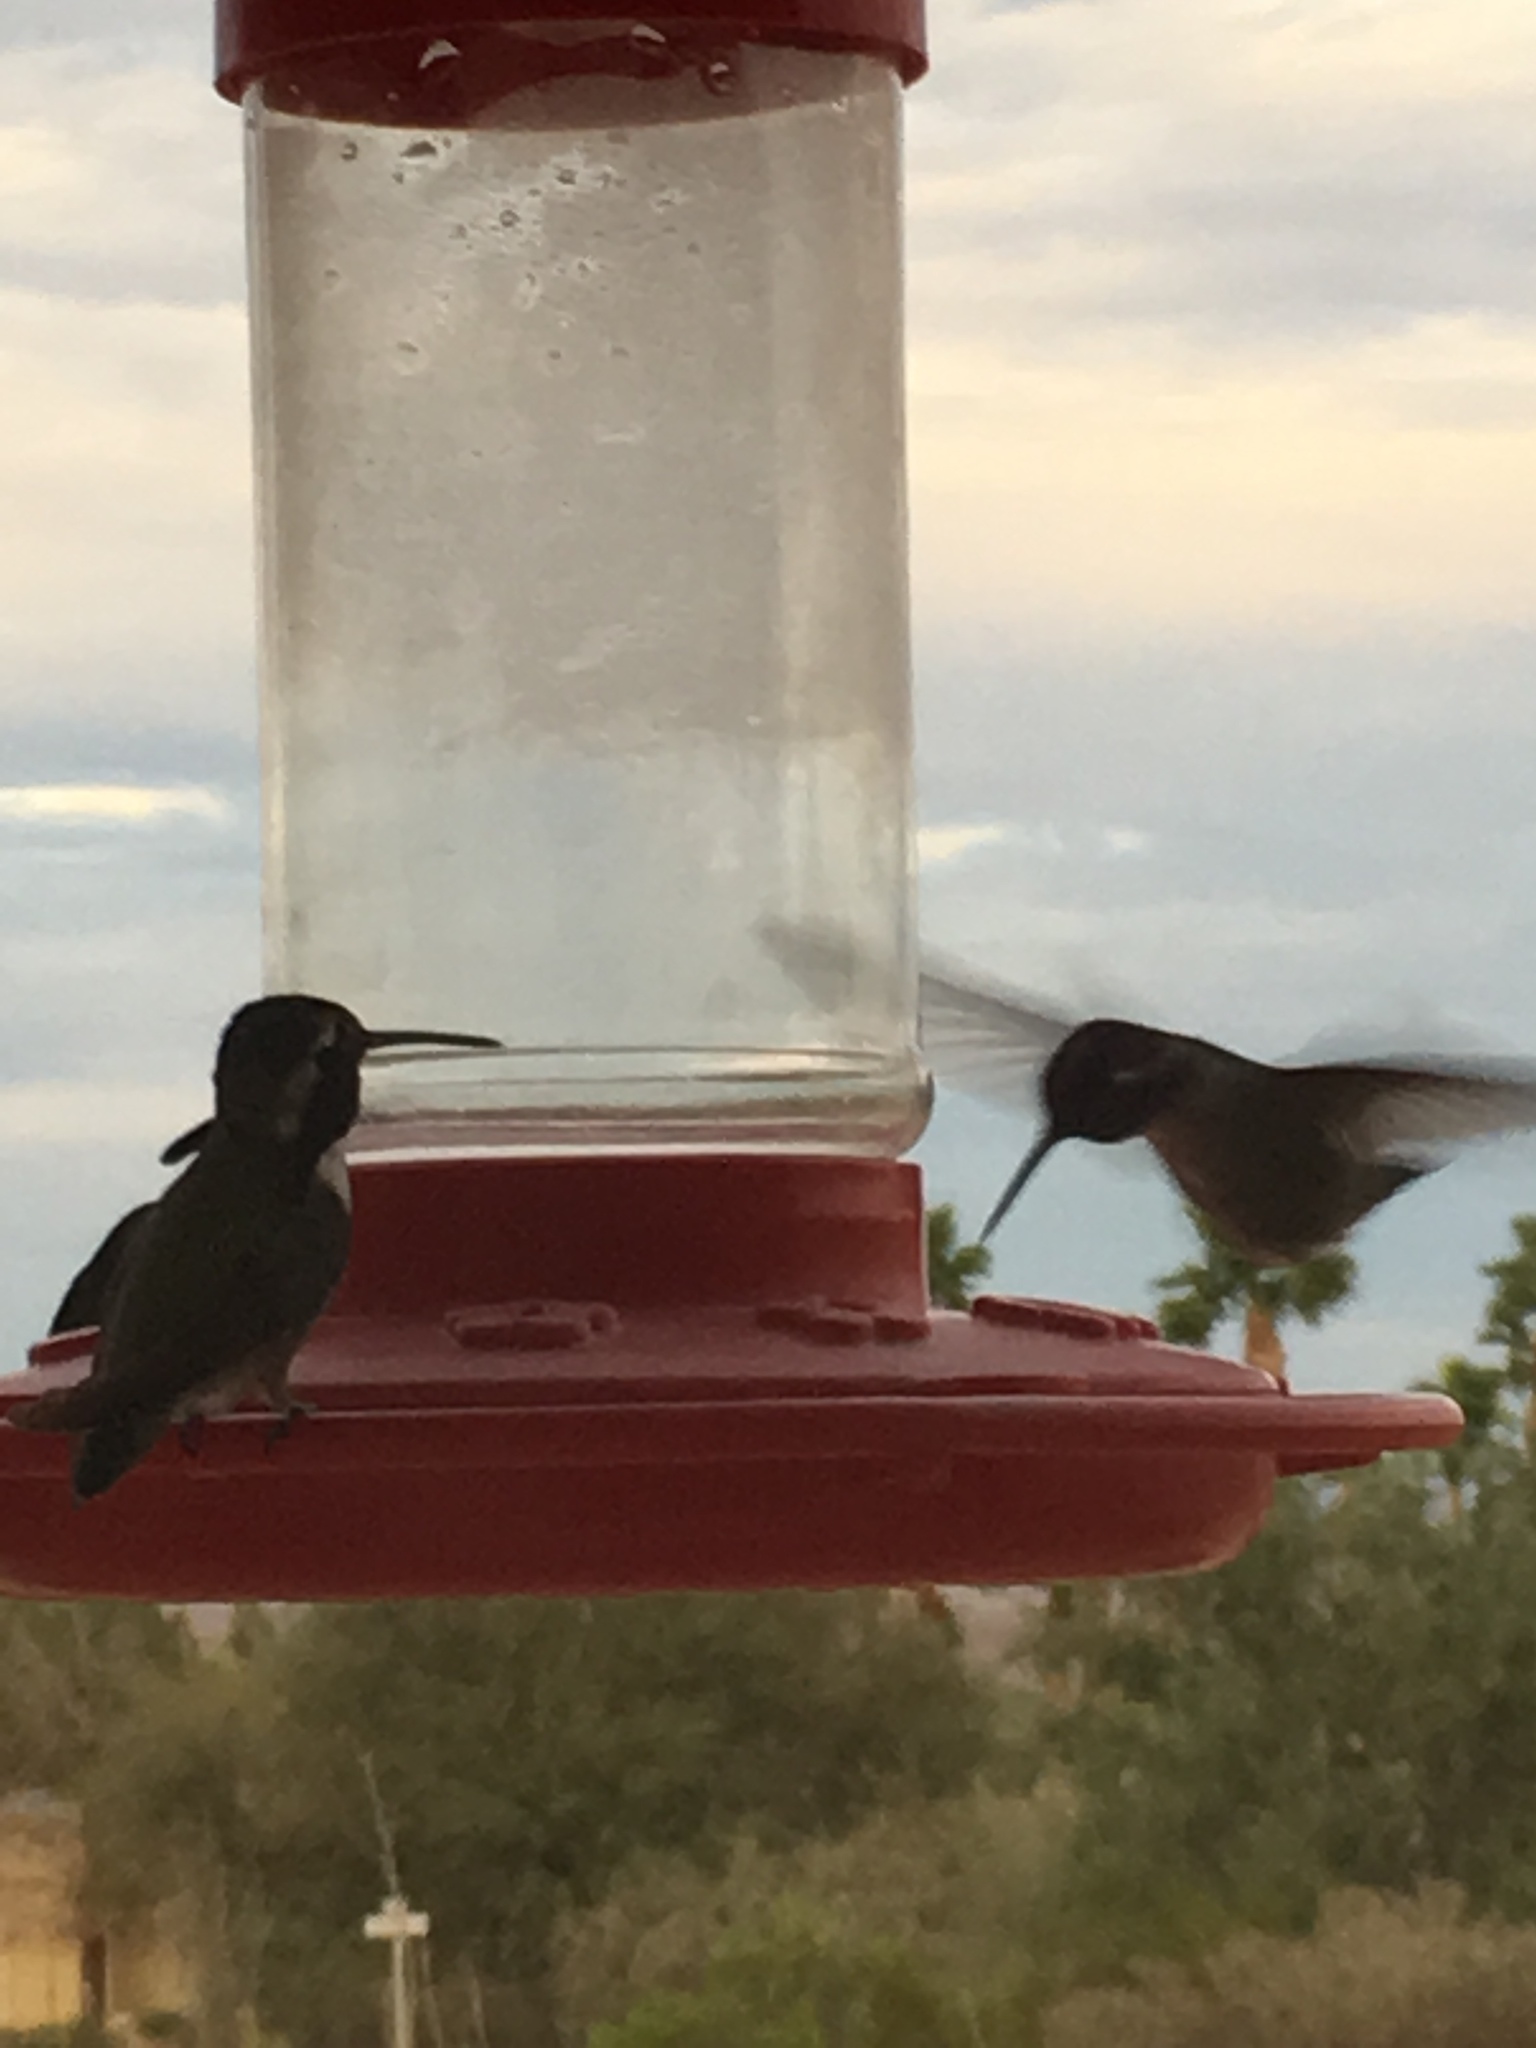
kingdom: Animalia
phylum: Chordata
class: Aves
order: Apodiformes
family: Trochilidae
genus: Calypte
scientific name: Calypte costae
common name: Costa's hummingbird
